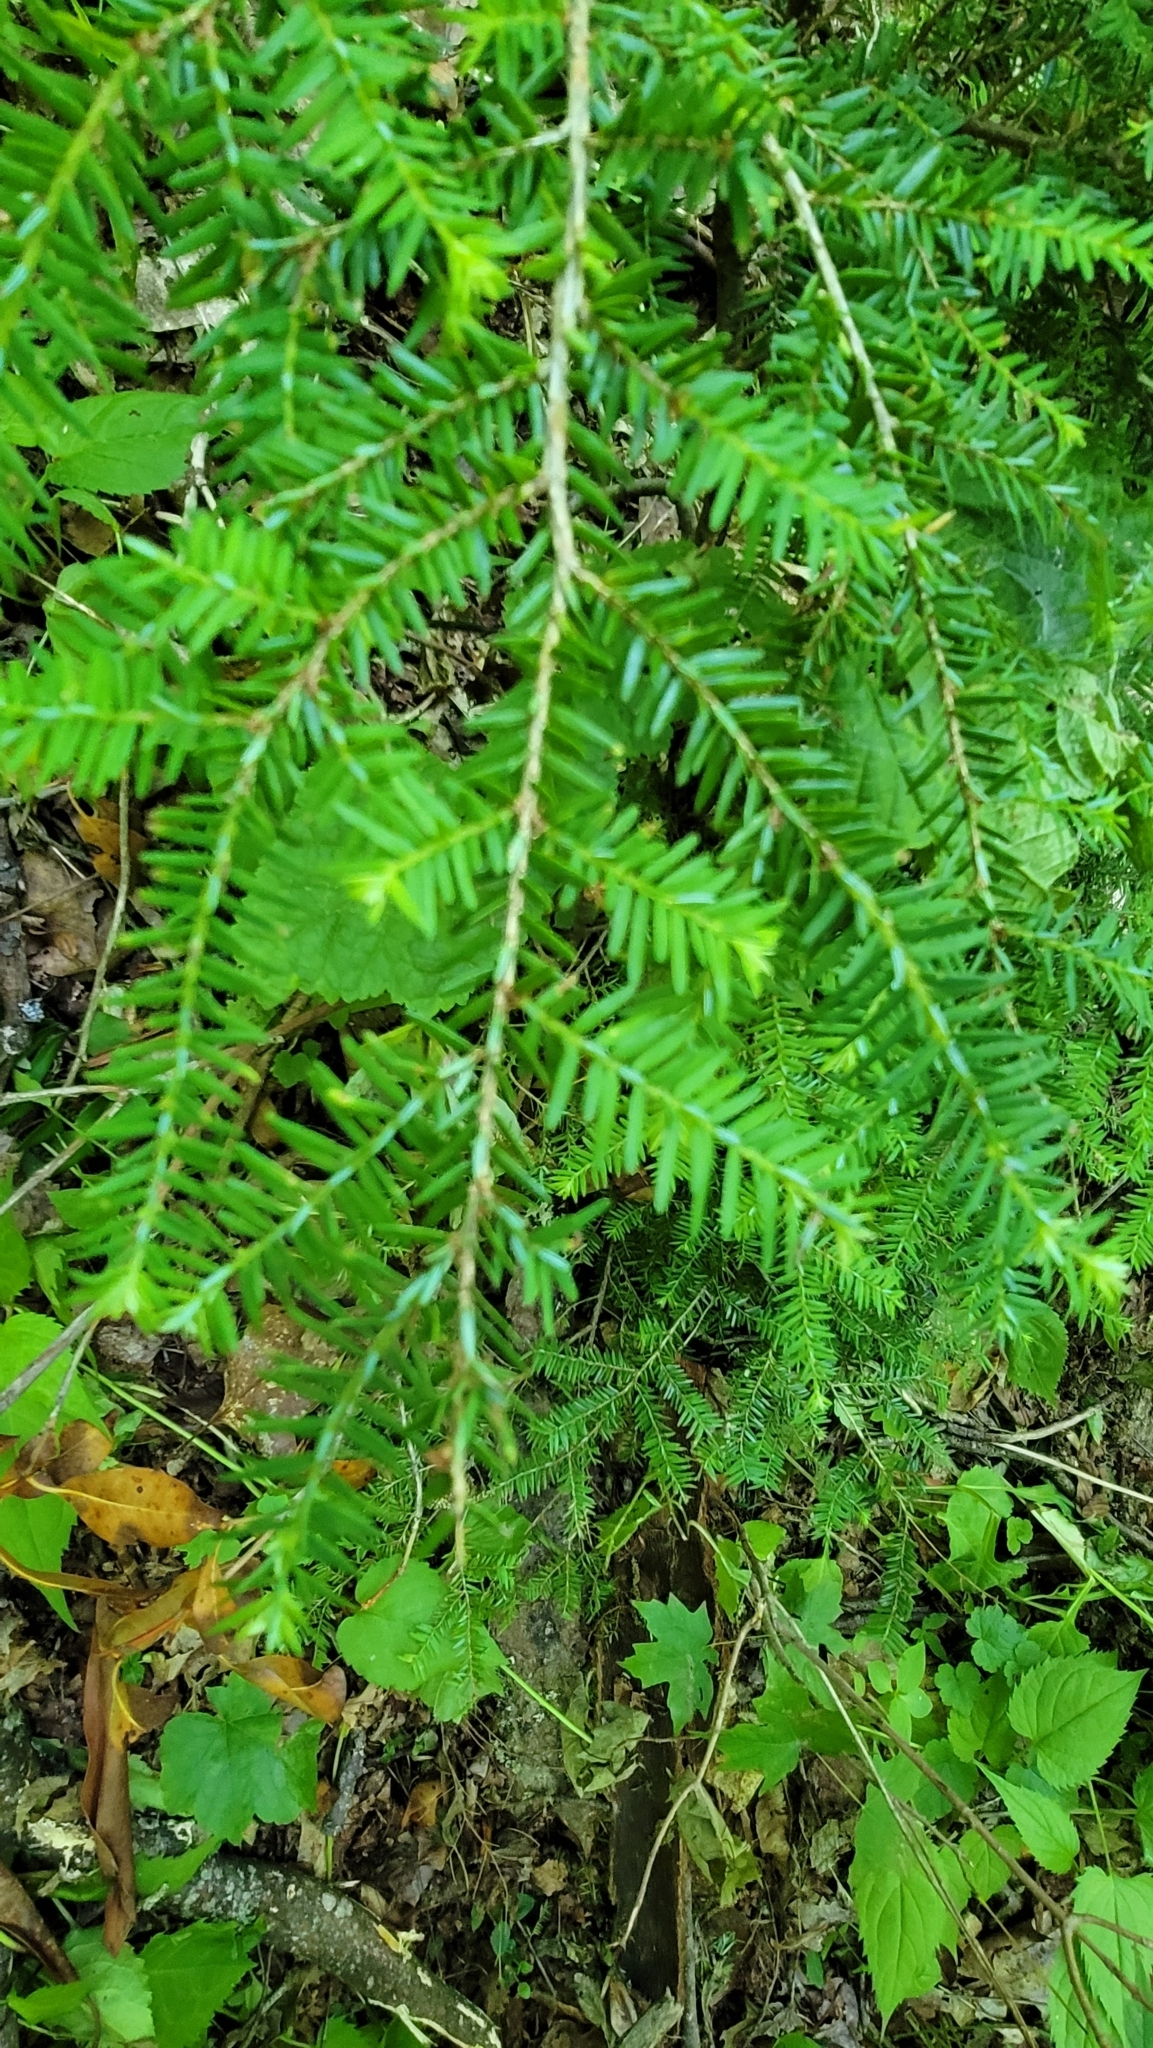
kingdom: Plantae
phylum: Tracheophyta
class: Pinopsida
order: Pinales
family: Pinaceae
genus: Tsuga
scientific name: Tsuga canadensis
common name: Eastern hemlock
